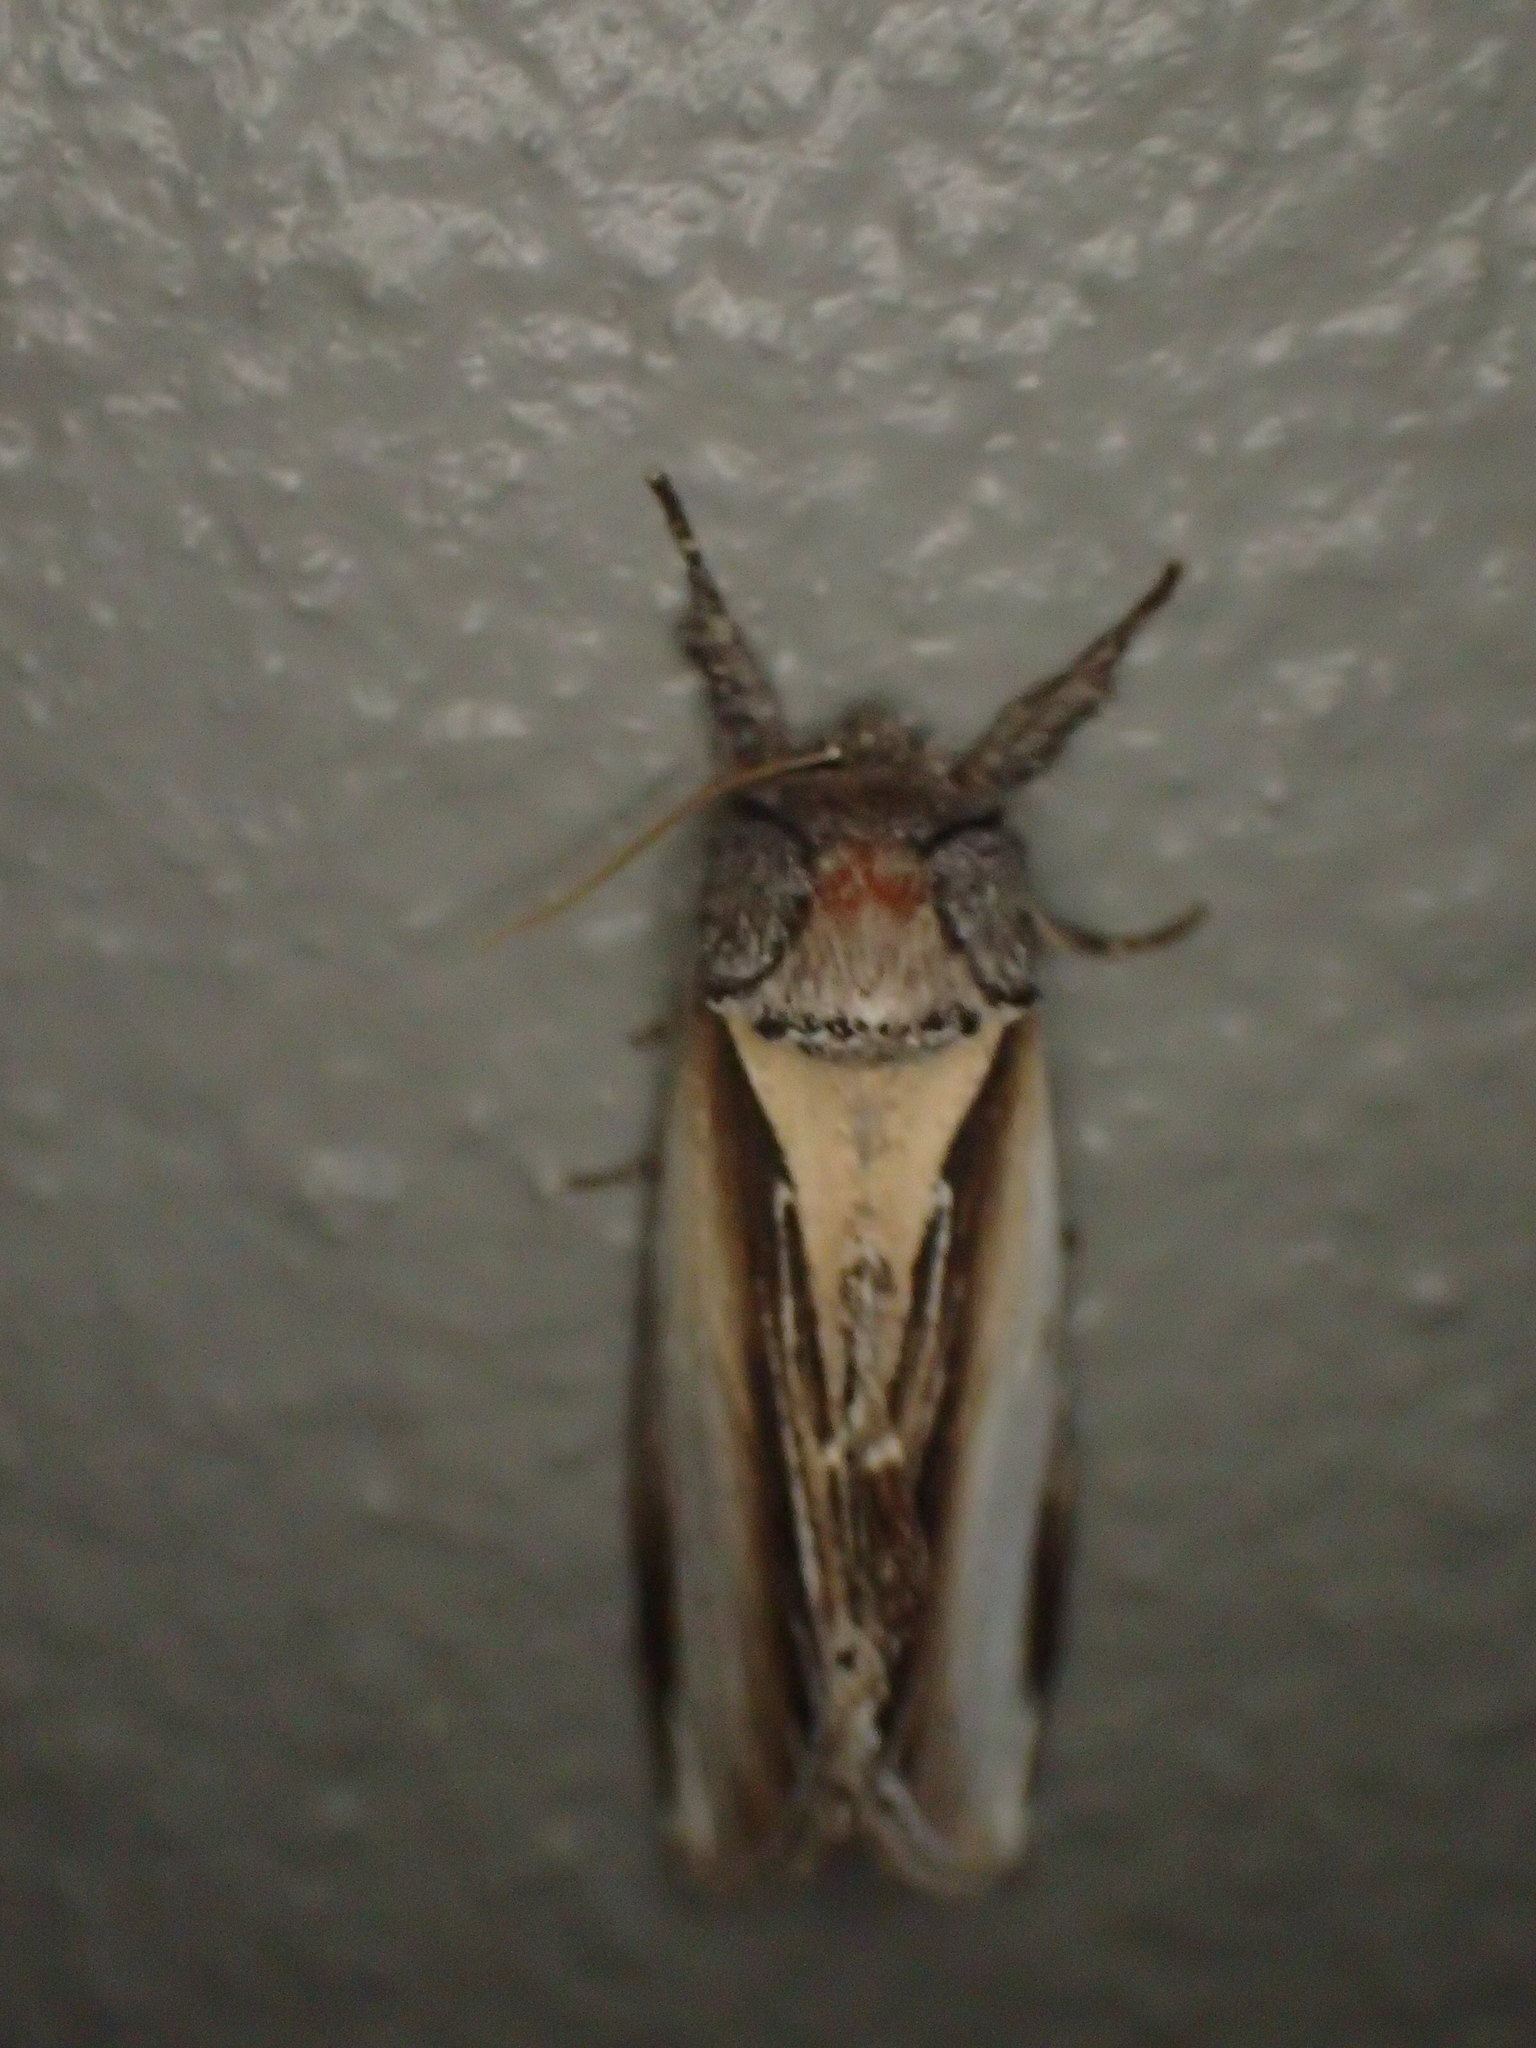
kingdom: Animalia
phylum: Arthropoda
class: Insecta
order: Lepidoptera
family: Notodontidae
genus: Pheosia
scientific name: Pheosia rimosa
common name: Black-rimmed prominent
